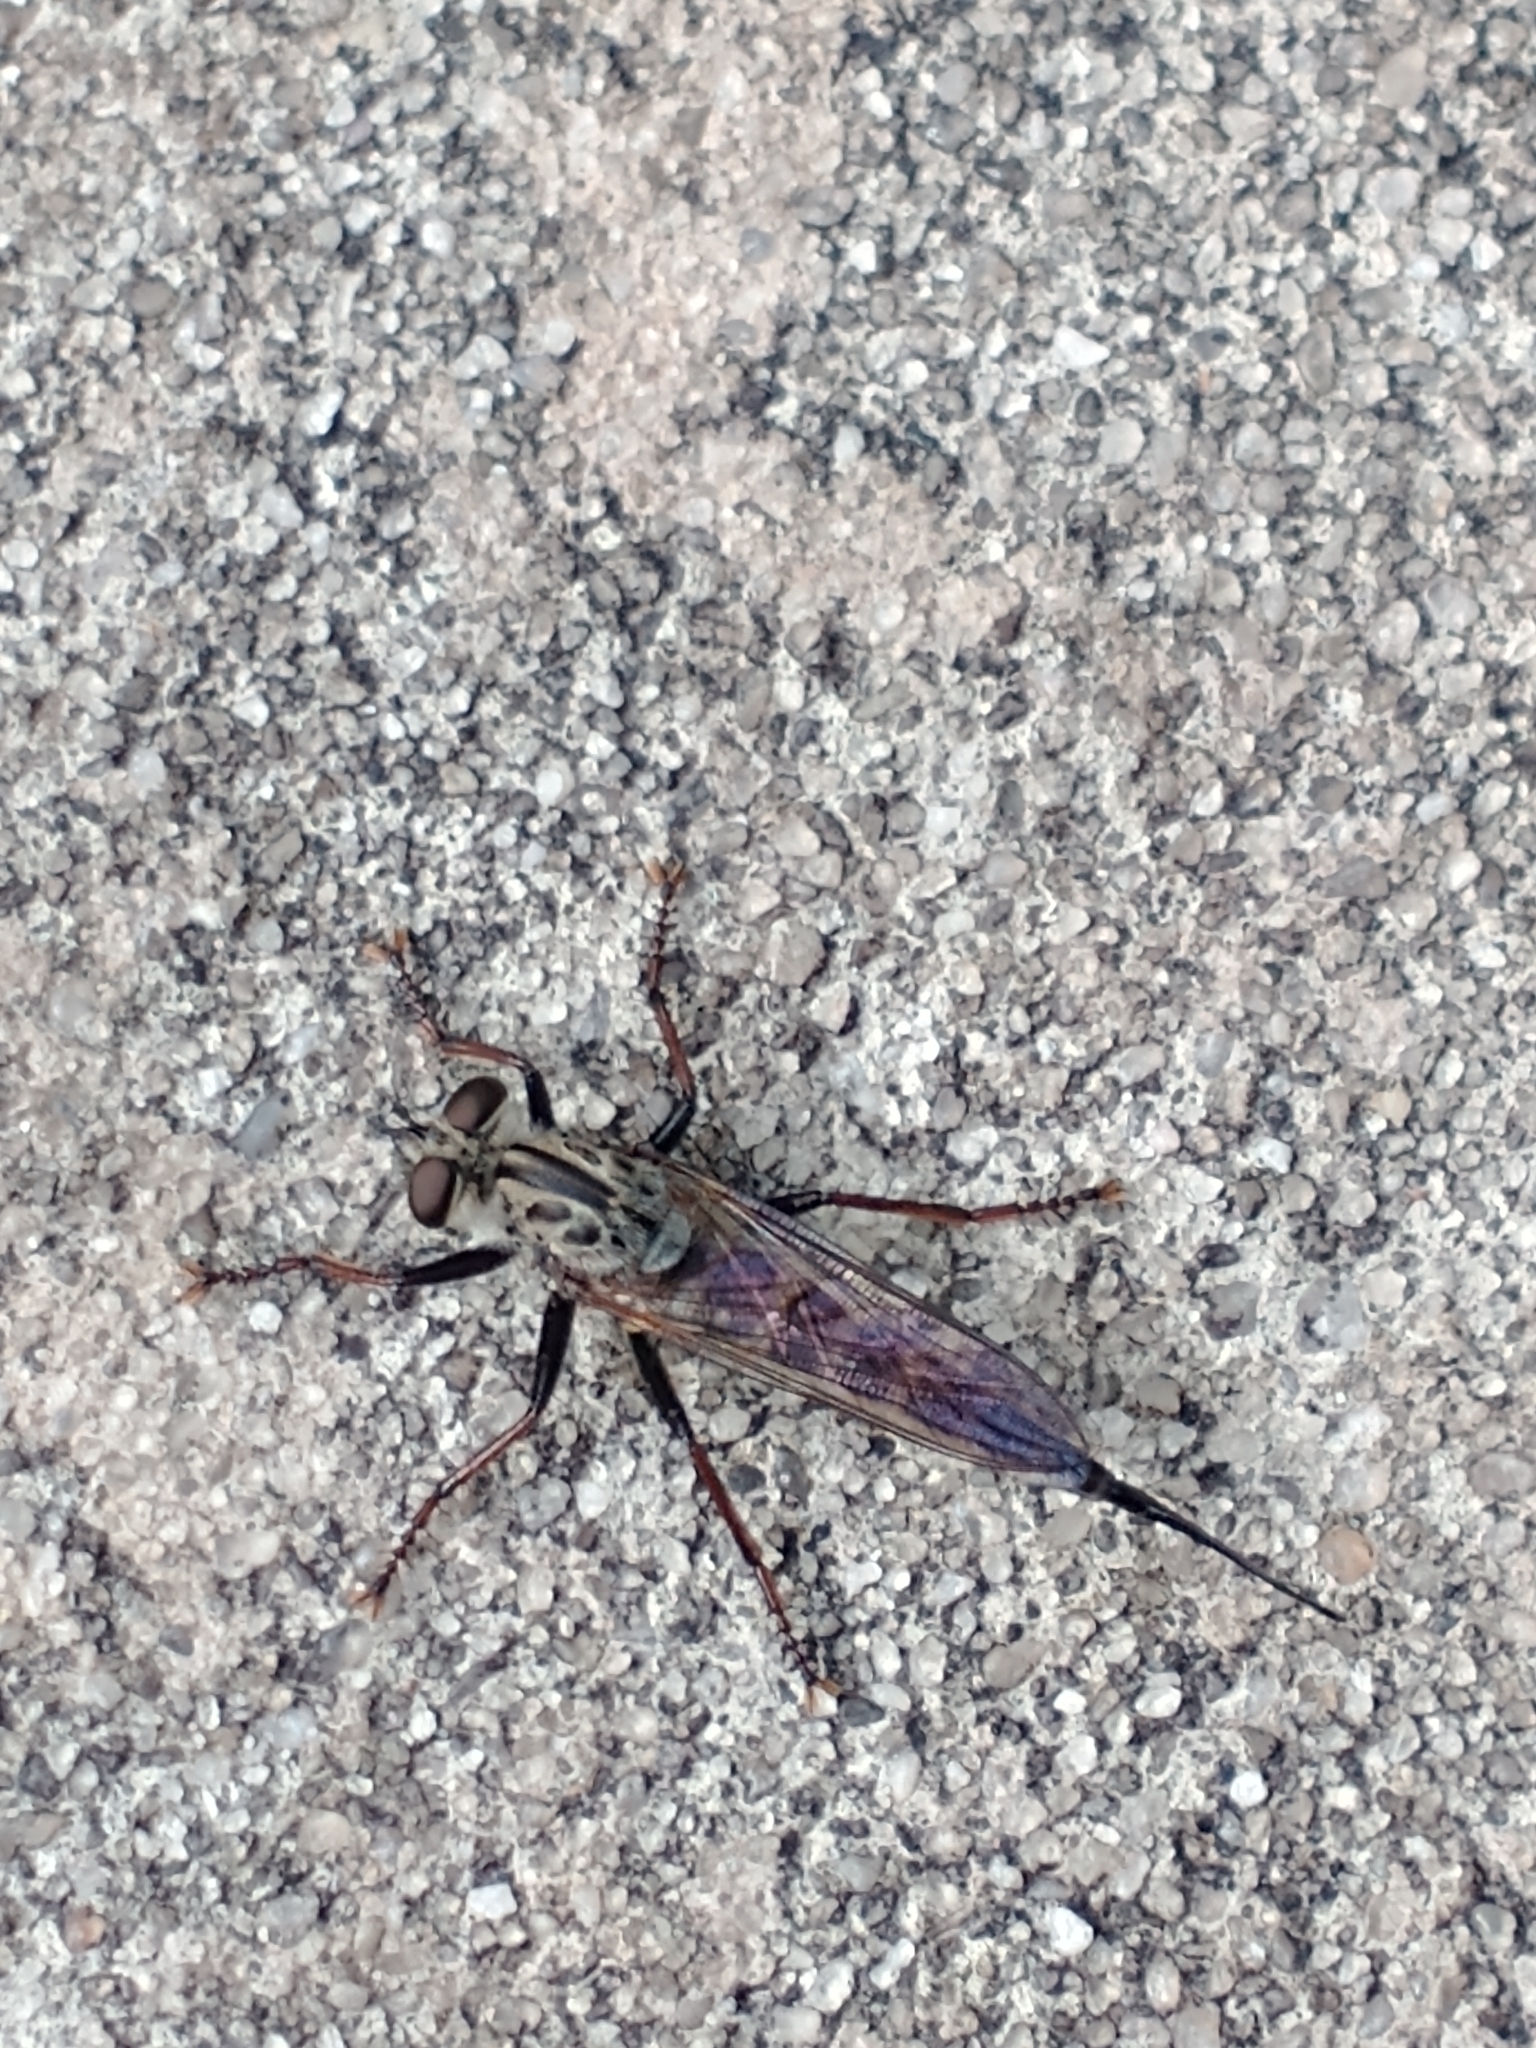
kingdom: Animalia
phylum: Arthropoda
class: Insecta
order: Diptera
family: Asilidae
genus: Efferia
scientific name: Efferia femorata
